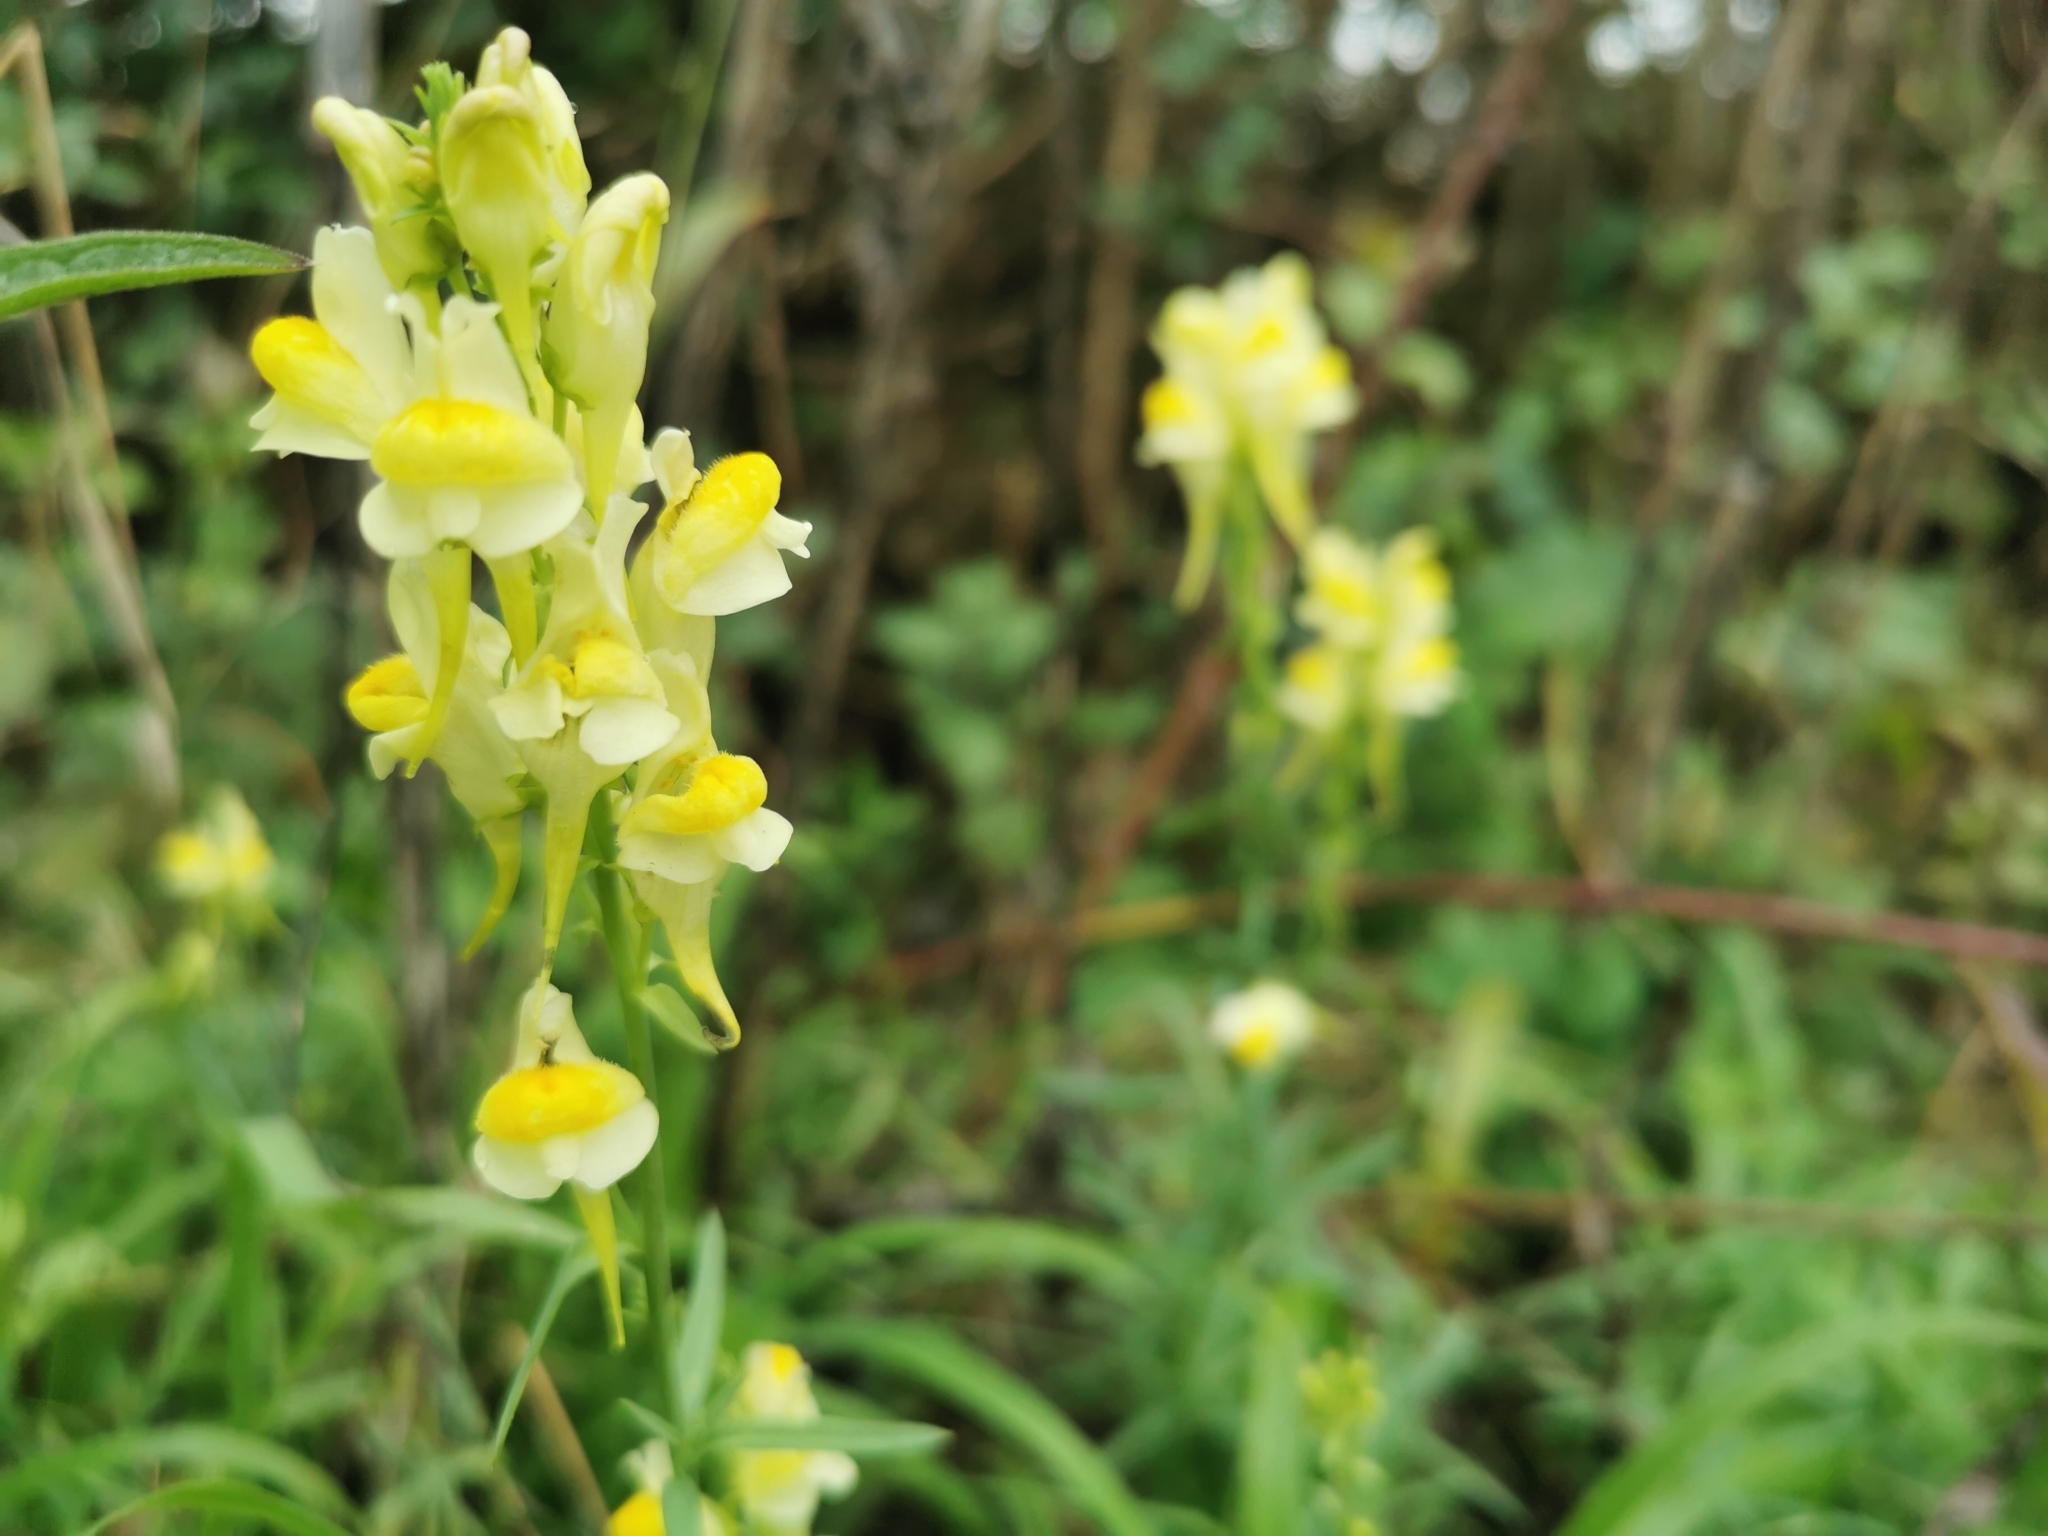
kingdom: Plantae
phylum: Tracheophyta
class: Magnoliopsida
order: Lamiales
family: Plantaginaceae
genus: Linaria
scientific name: Linaria vulgaris
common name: Butter and eggs
